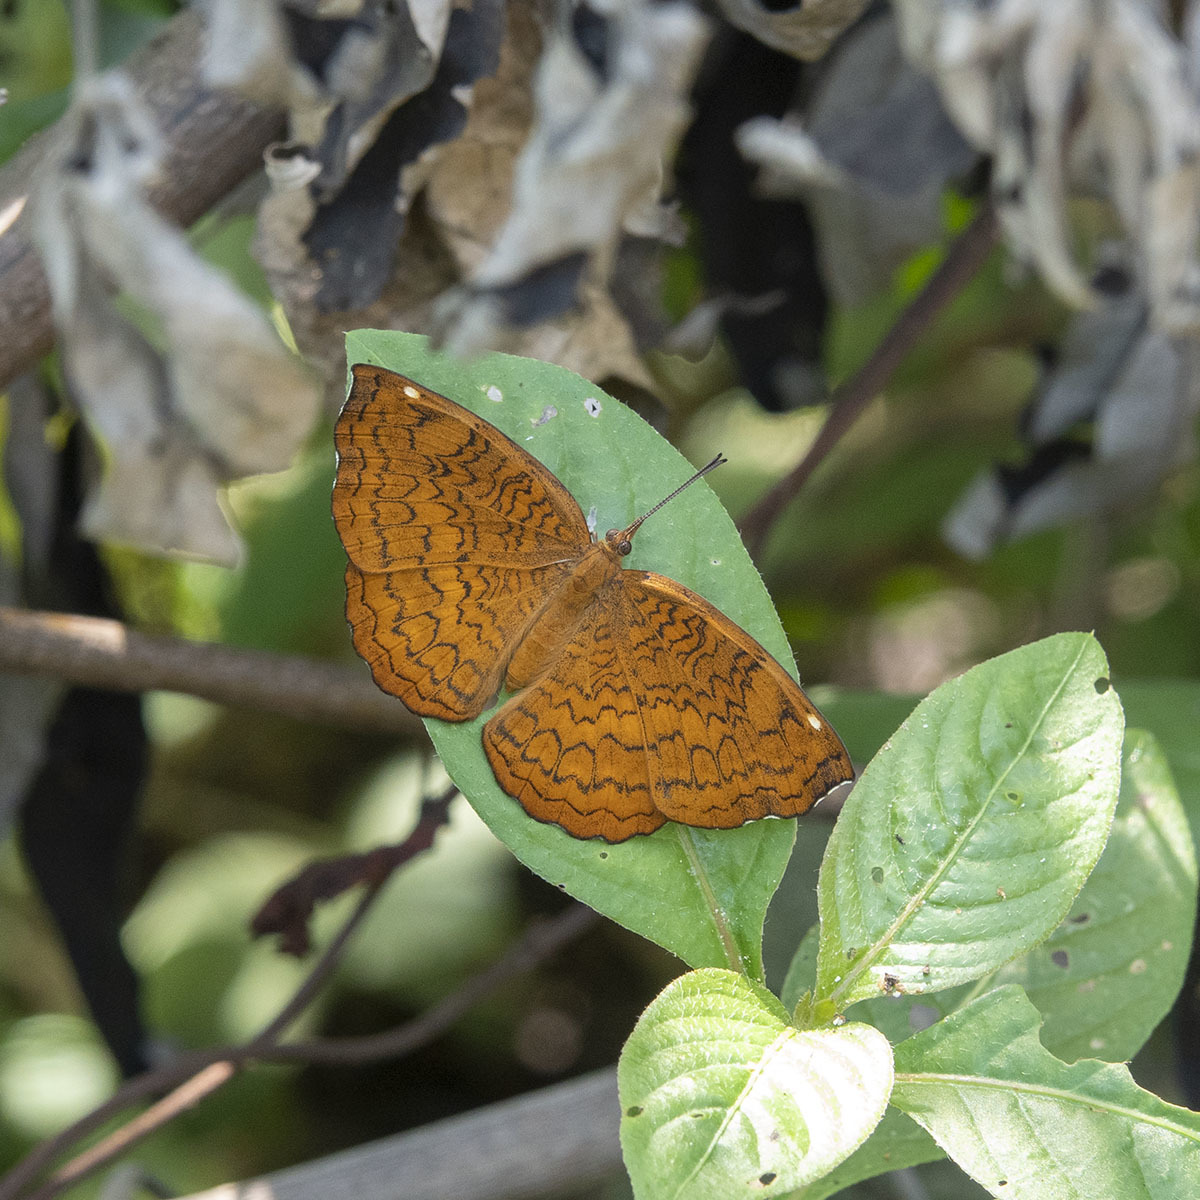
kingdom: Animalia
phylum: Arthropoda
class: Insecta
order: Lepidoptera
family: Nymphalidae
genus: Ariadne
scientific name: Ariadne merione
